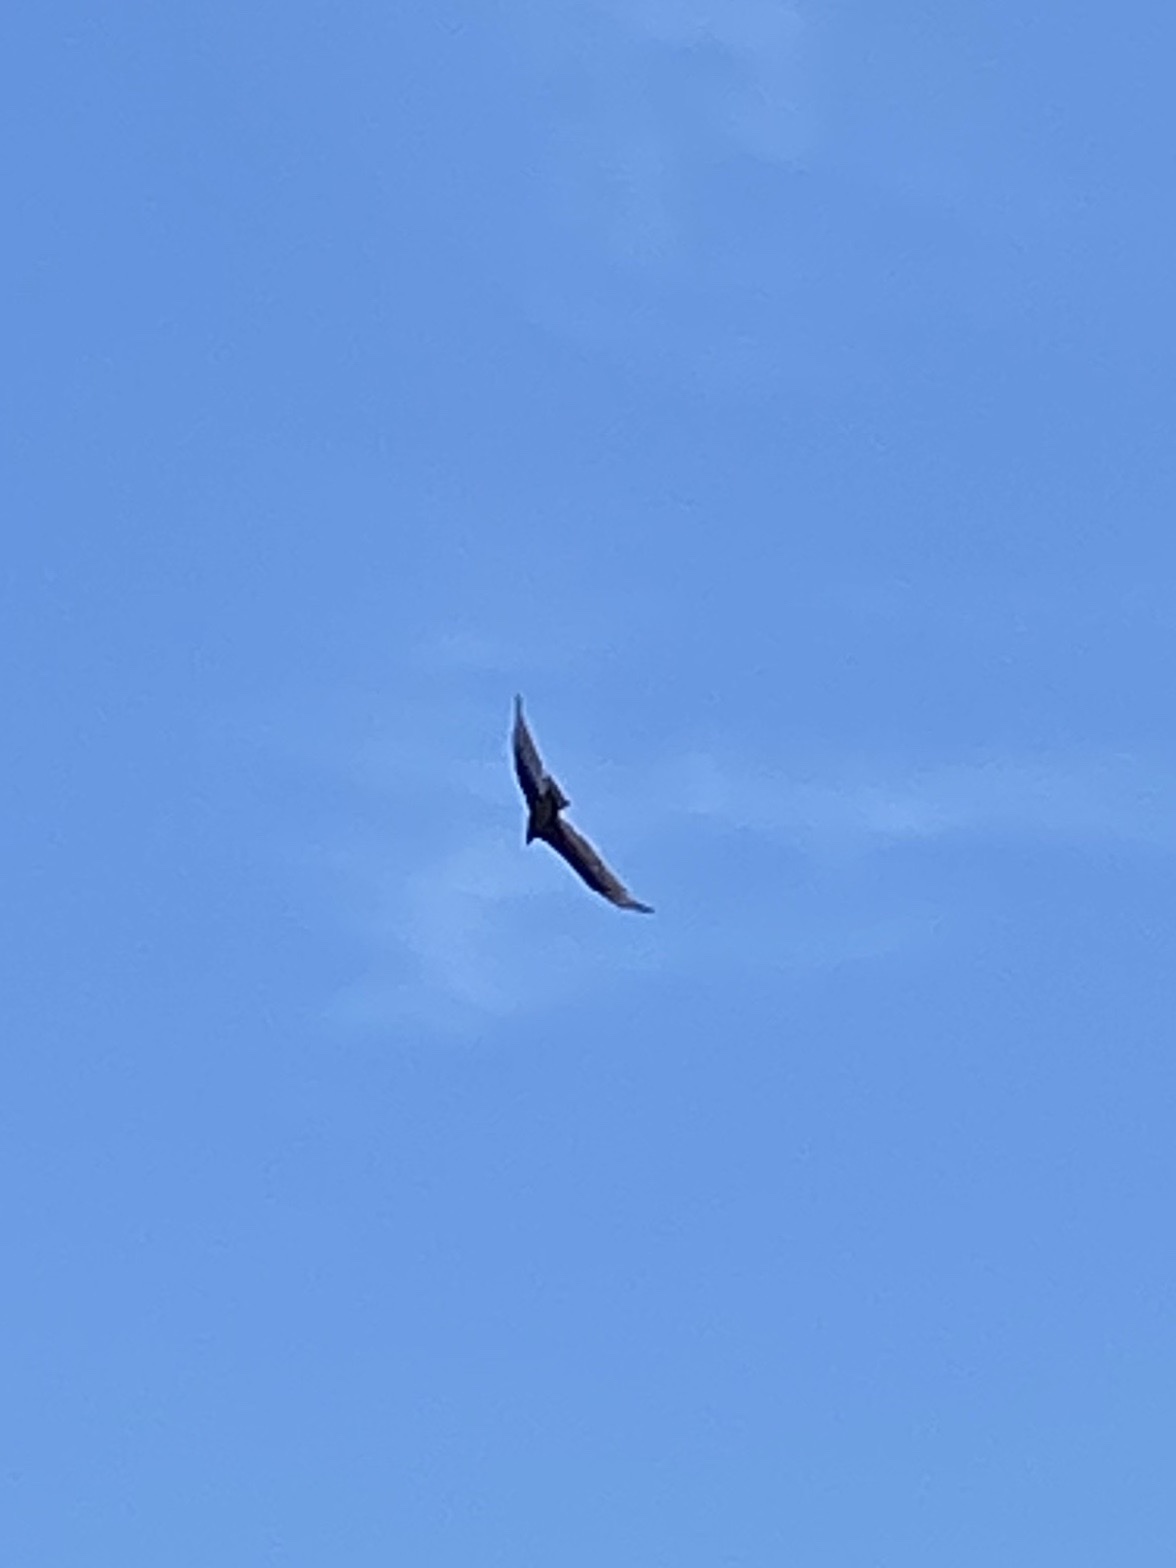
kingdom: Animalia
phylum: Chordata
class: Aves
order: Accipitriformes
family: Cathartidae
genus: Cathartes
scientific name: Cathartes aura
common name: Turkey vulture
